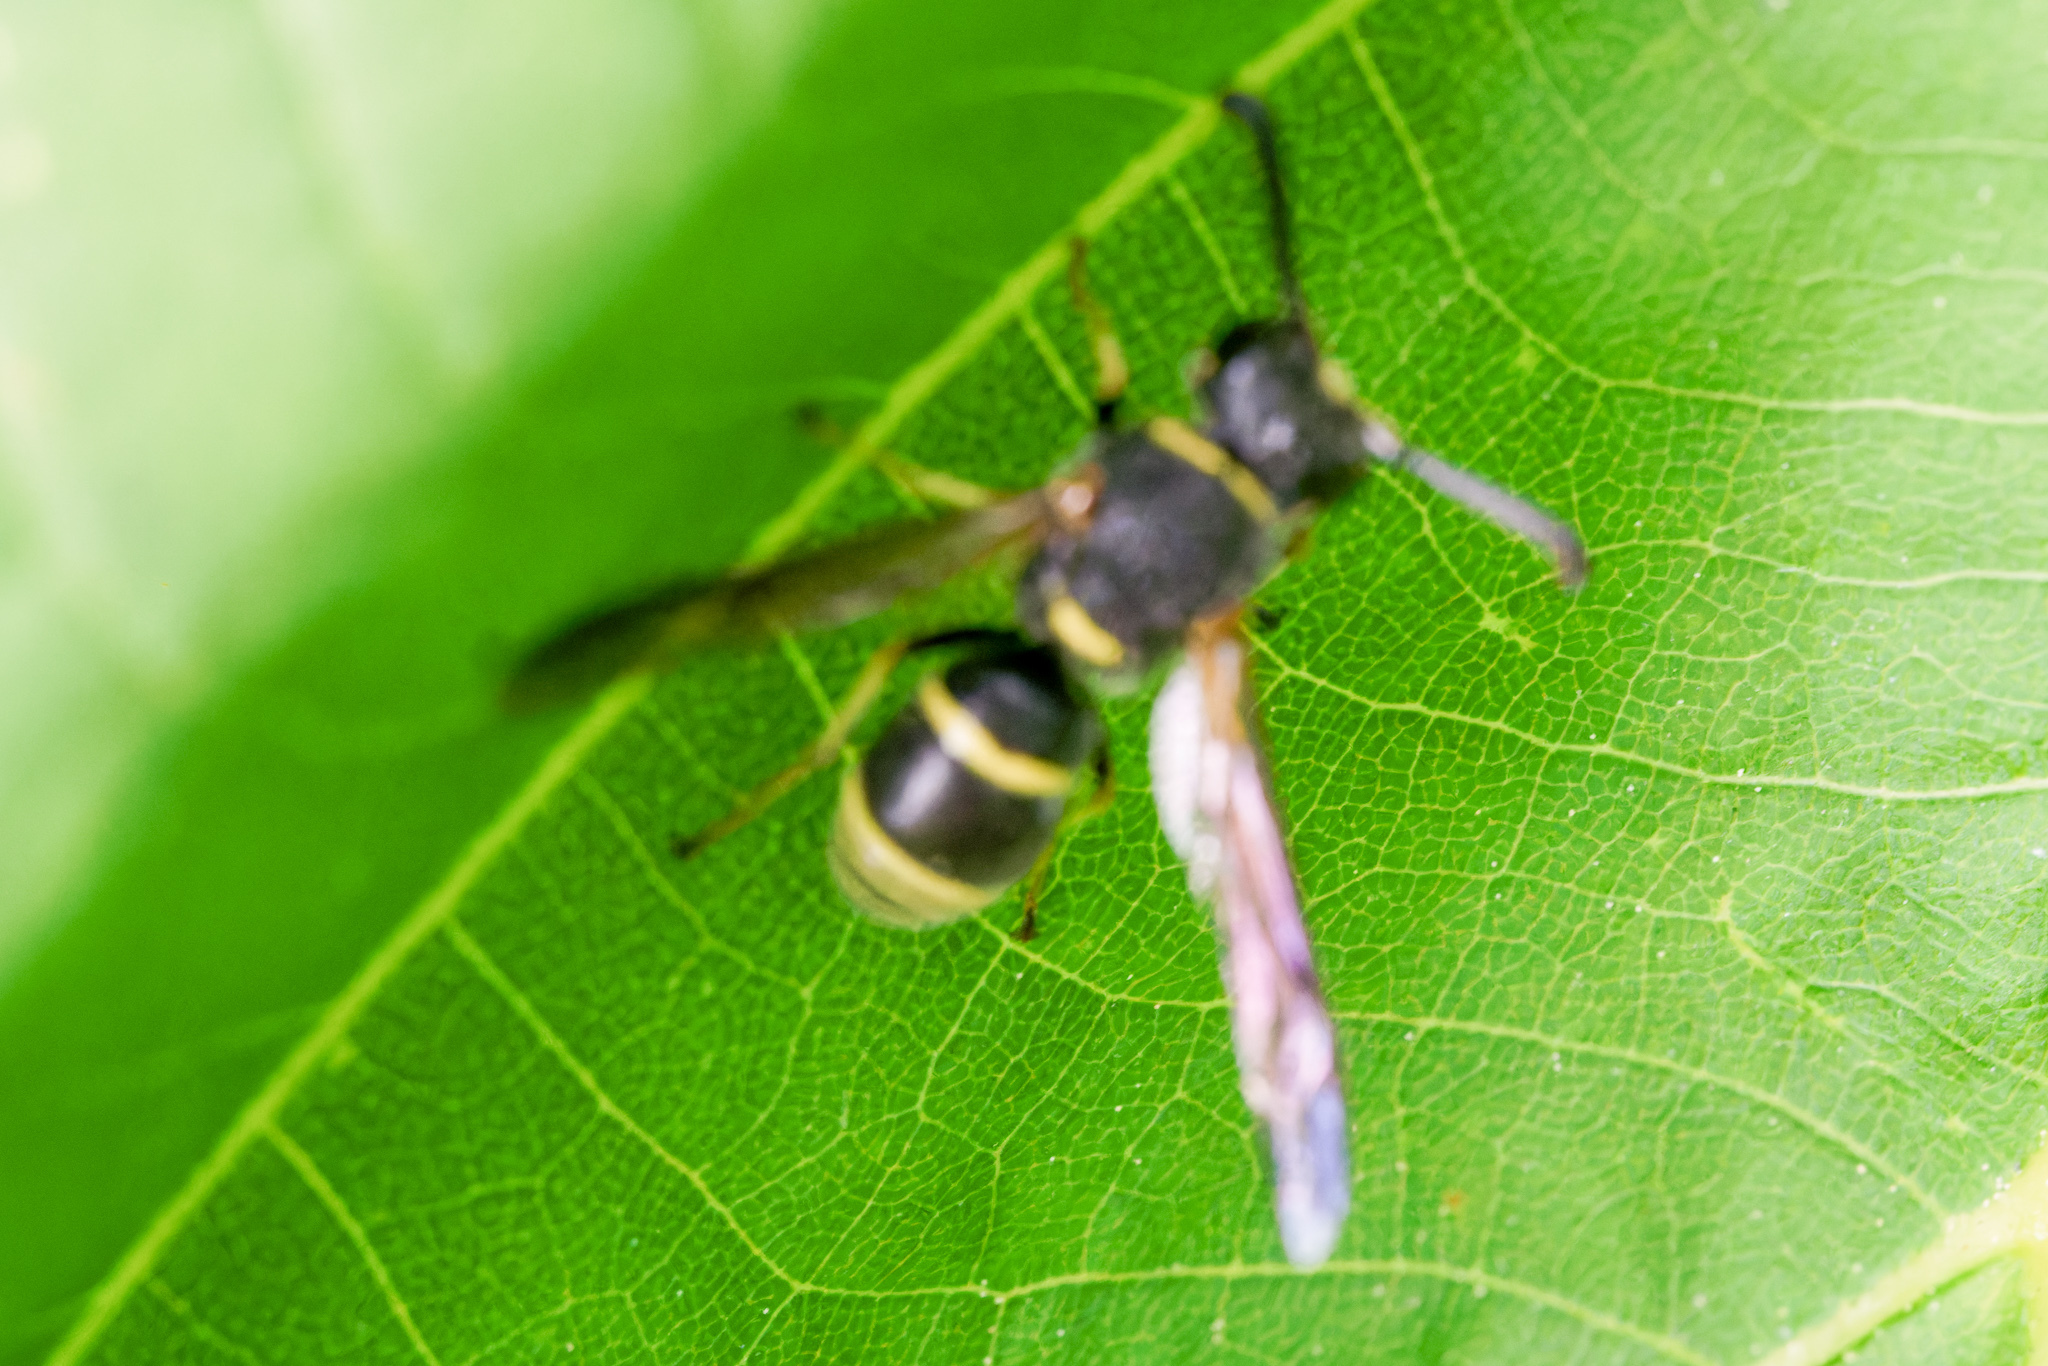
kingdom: Animalia
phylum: Arthropoda
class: Insecta
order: Hymenoptera
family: Eumenidae
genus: Euodynerus
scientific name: Euodynerus foraminatus
